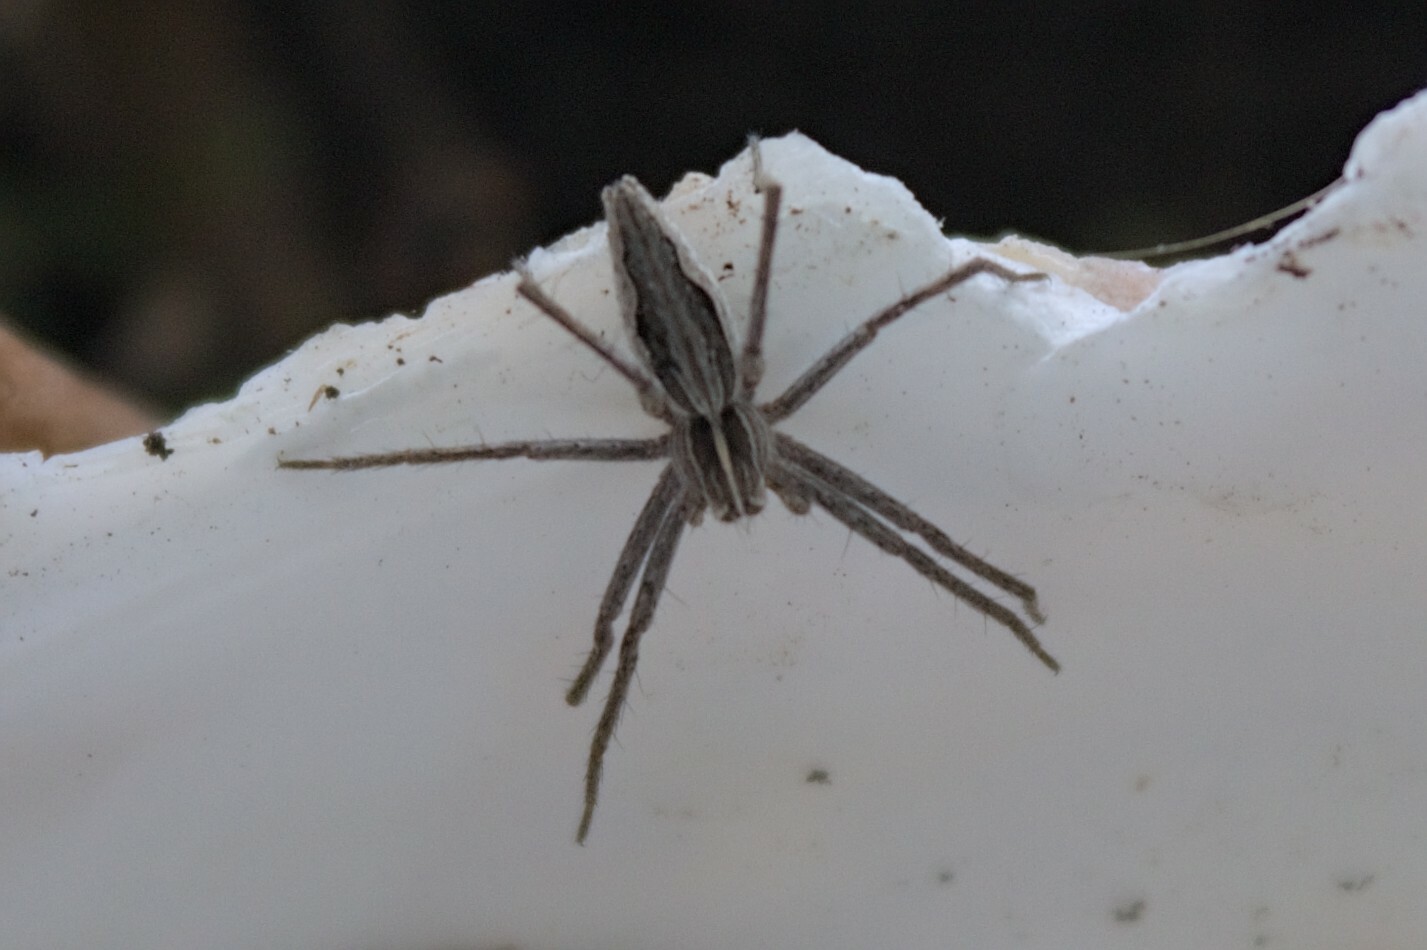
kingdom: Animalia
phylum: Arthropoda
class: Arachnida
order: Araneae
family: Pisauridae
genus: Pisaura
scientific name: Pisaura mirabilis
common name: Tent spider
